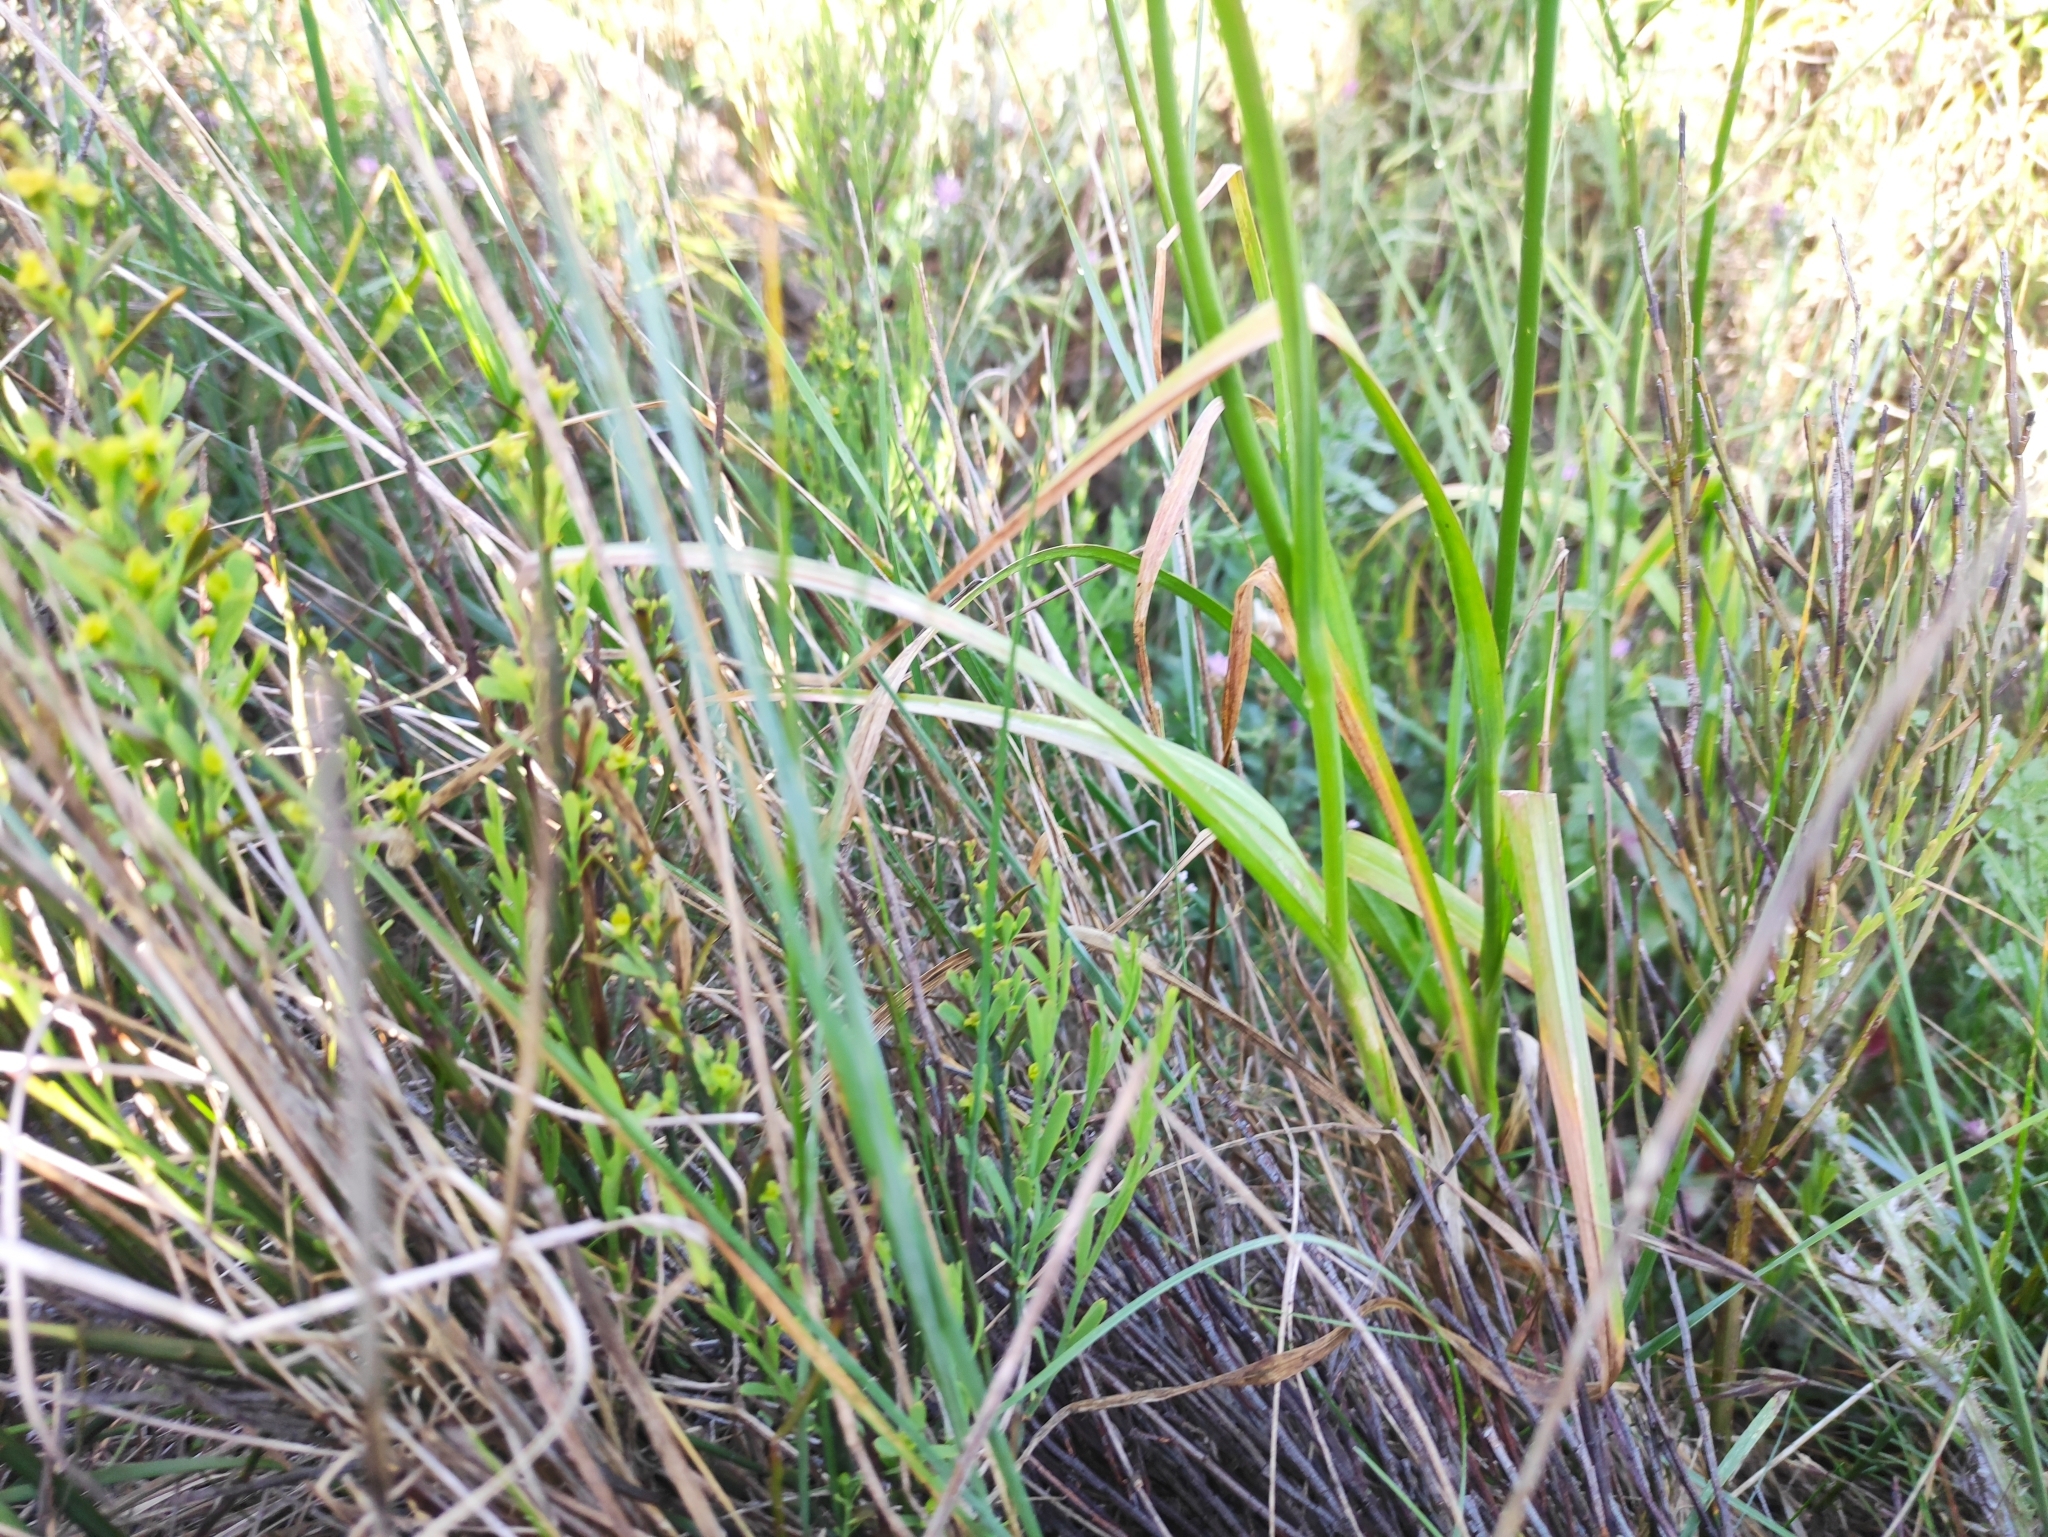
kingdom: Plantae
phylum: Tracheophyta
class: Liliopsida
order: Asparagales
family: Amaryllidaceae
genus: Allium
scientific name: Allium rotundum
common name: Sand leek
